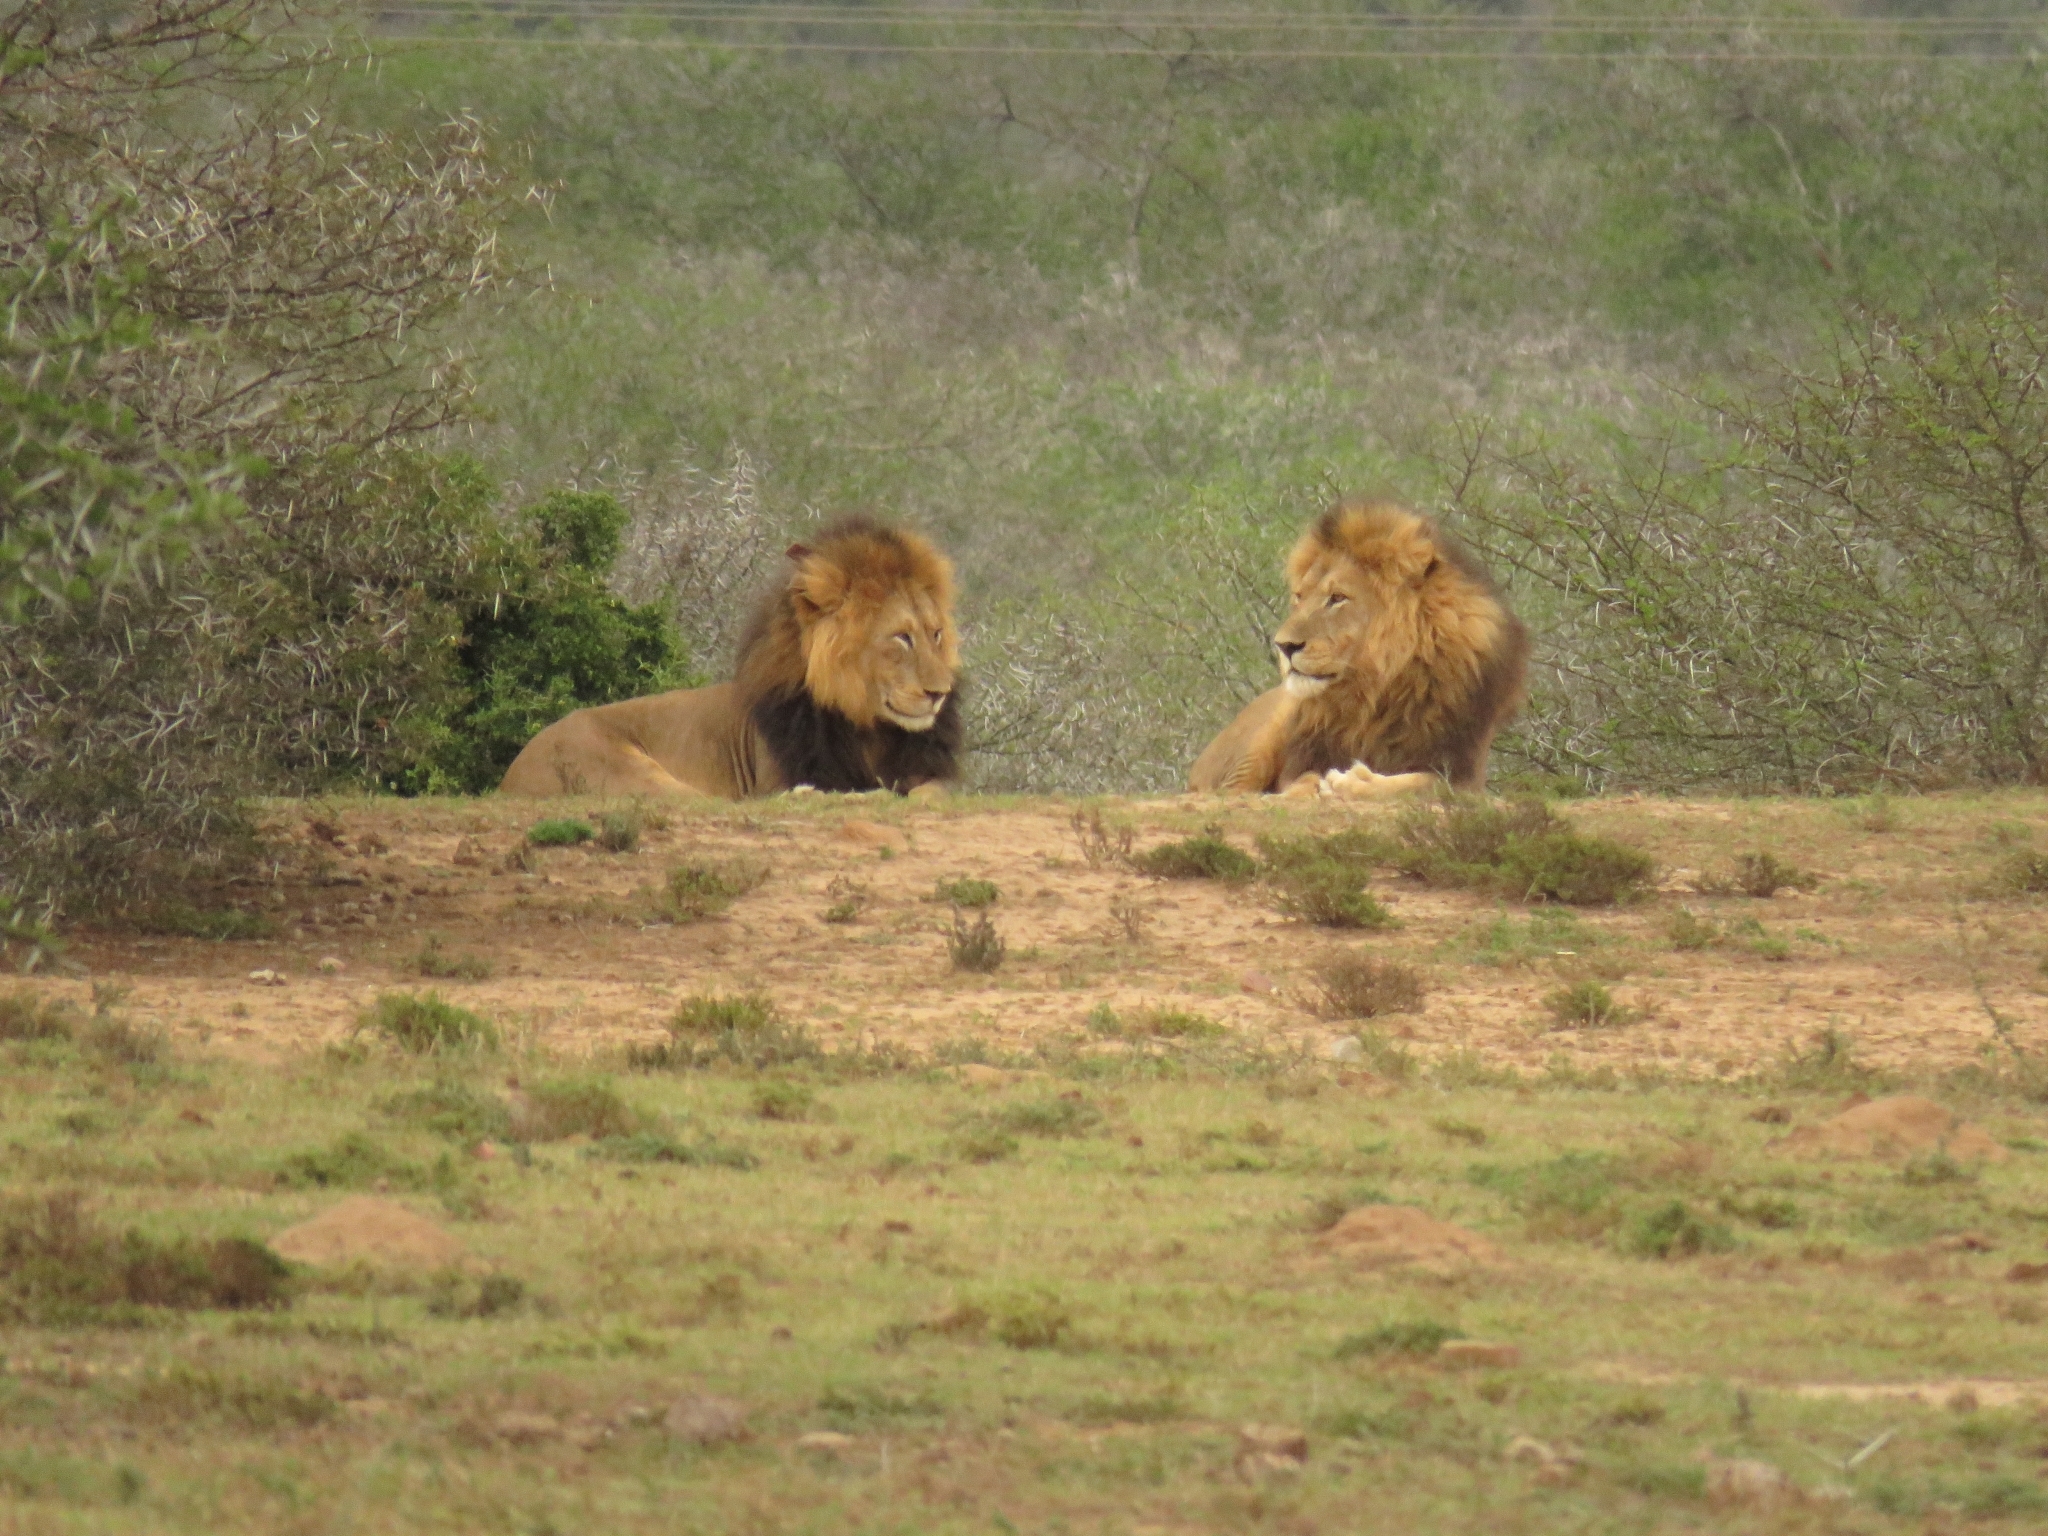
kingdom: Animalia
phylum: Chordata
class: Mammalia
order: Carnivora
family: Felidae
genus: Panthera
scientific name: Panthera leo
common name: Lion
